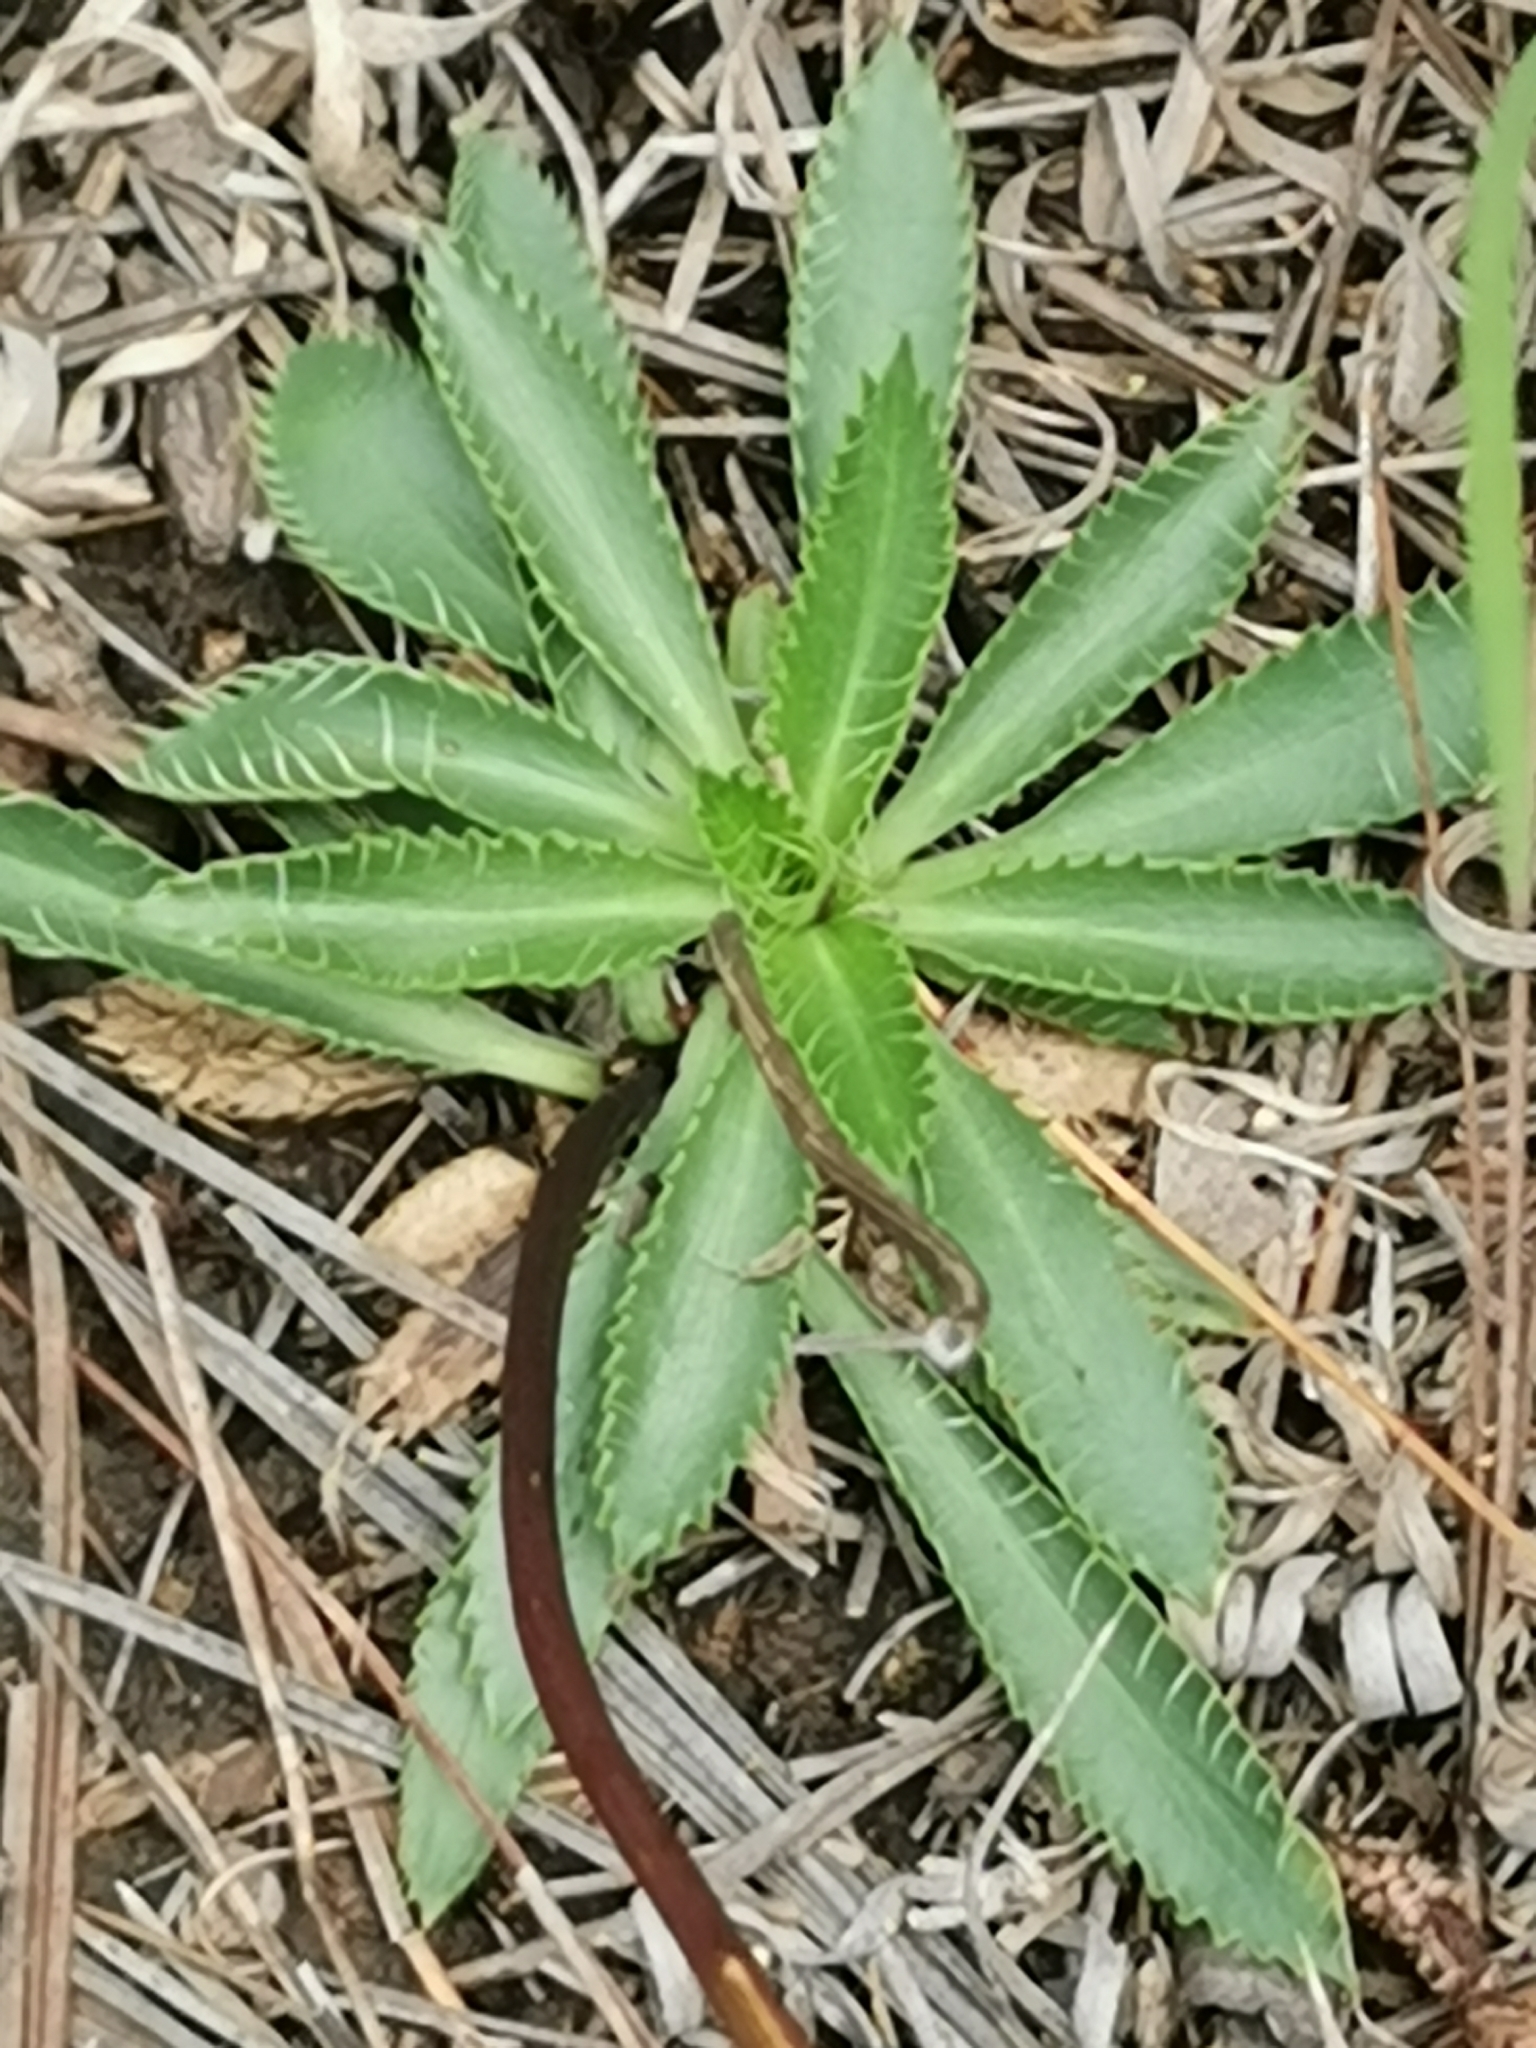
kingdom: Plantae
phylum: Tracheophyta
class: Magnoliopsida
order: Apiales
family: Apiaceae
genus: Eryngium
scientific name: Eryngium lemmonii
